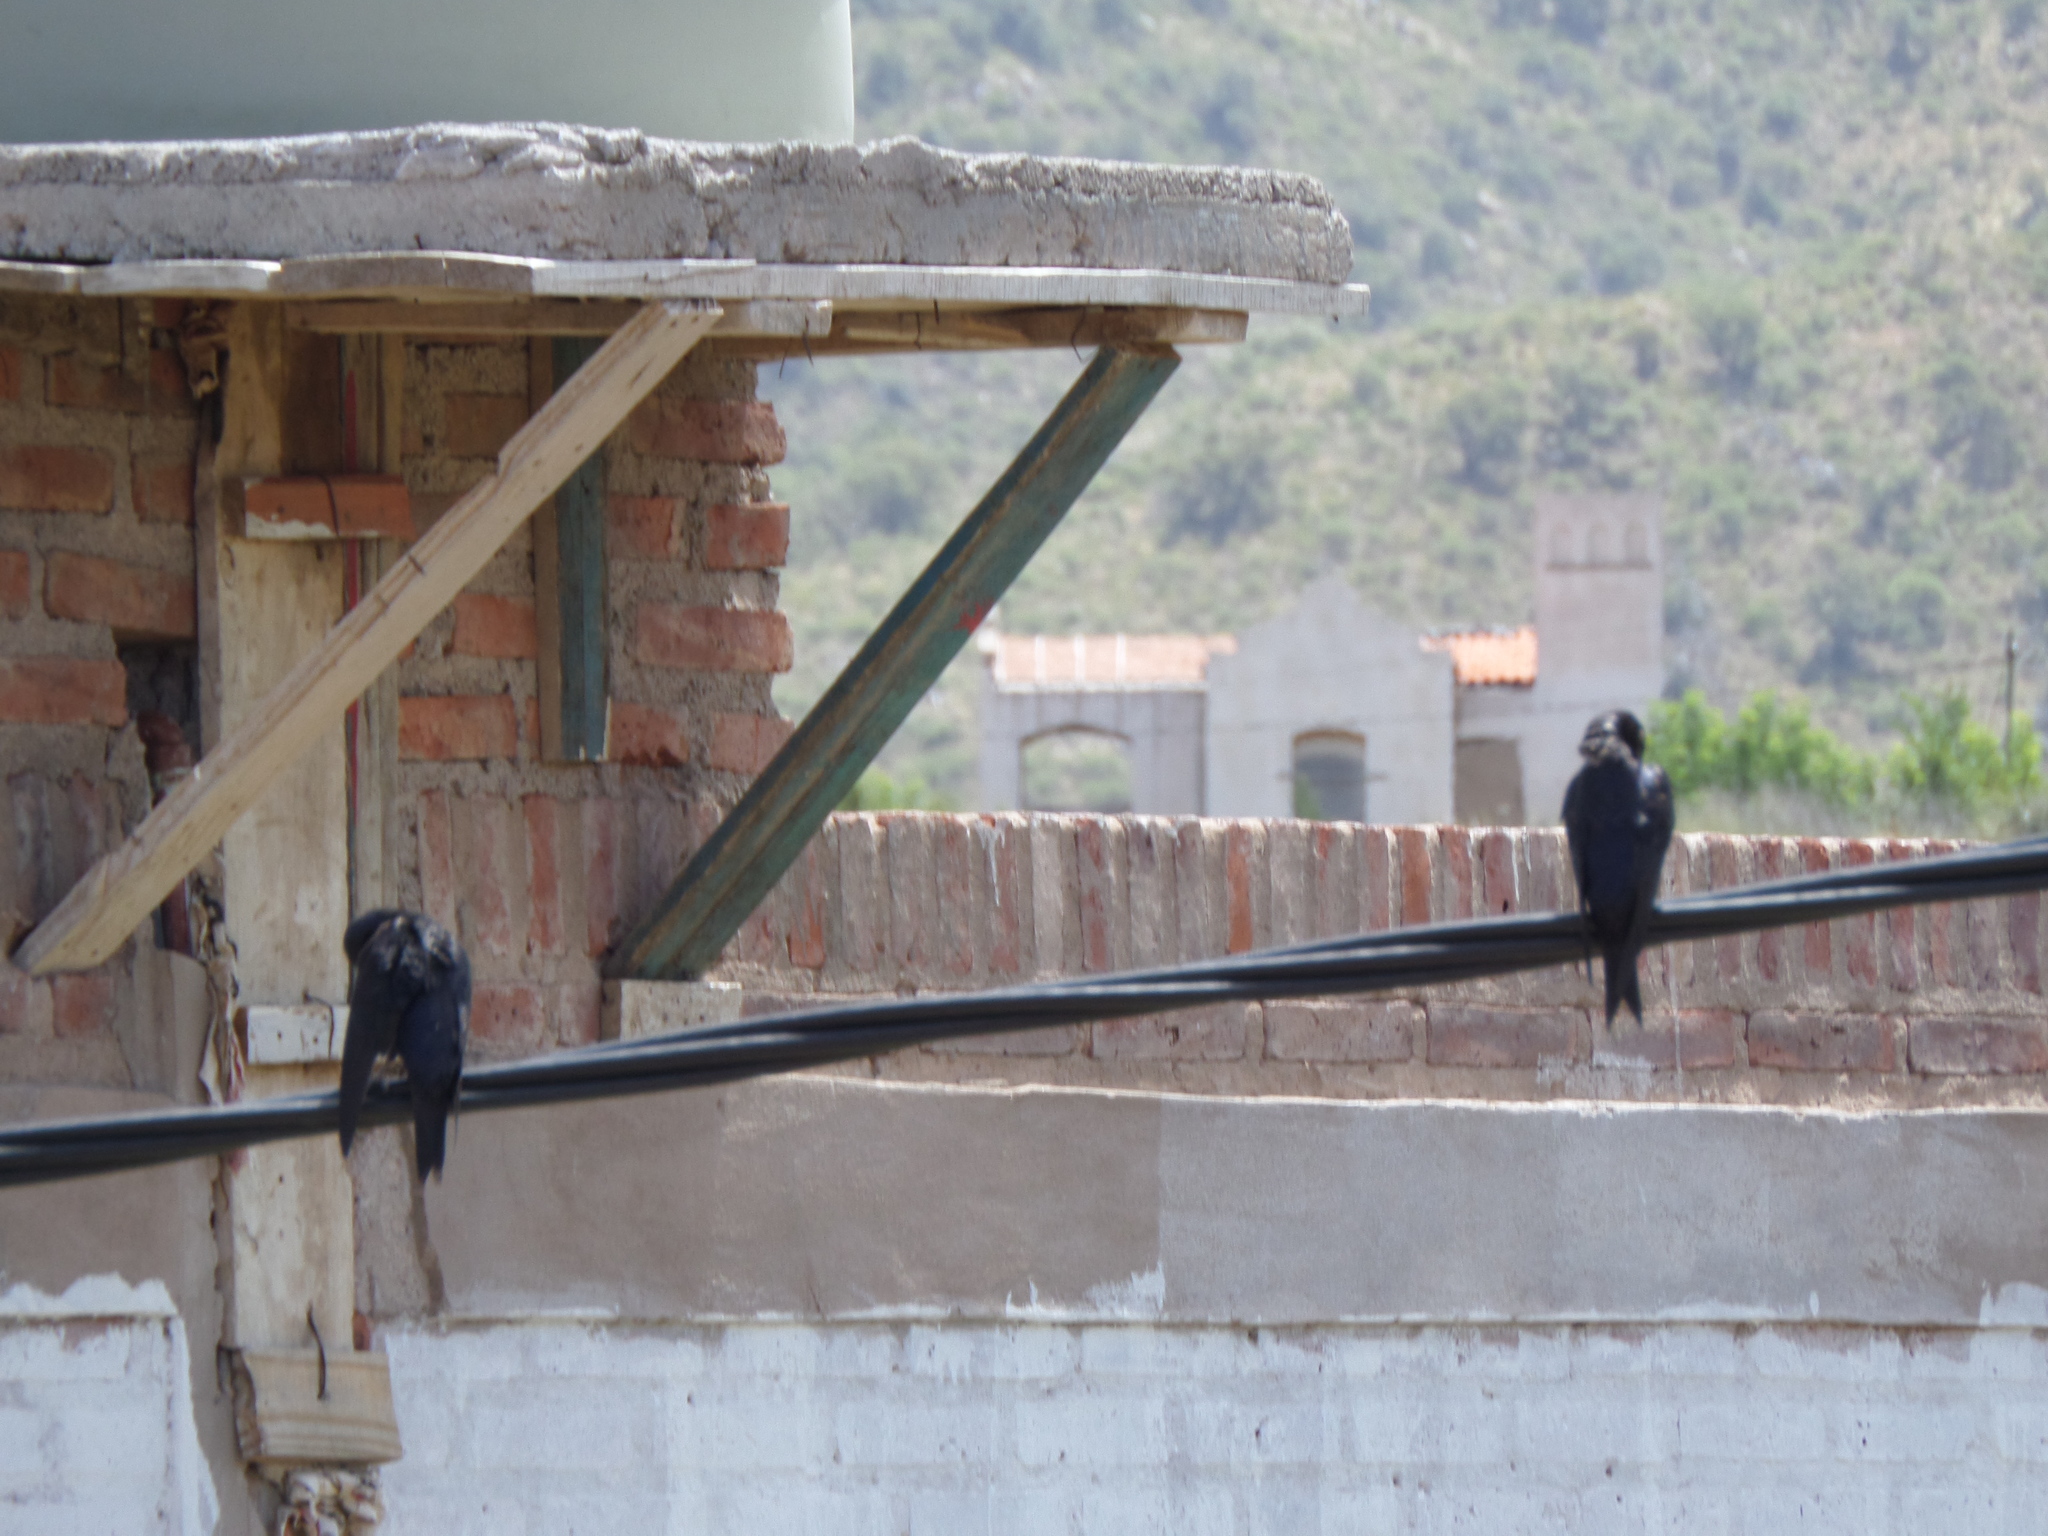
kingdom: Animalia
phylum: Chordata
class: Aves
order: Passeriformes
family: Hirundinidae
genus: Progne
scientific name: Progne elegans
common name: Southern martin
